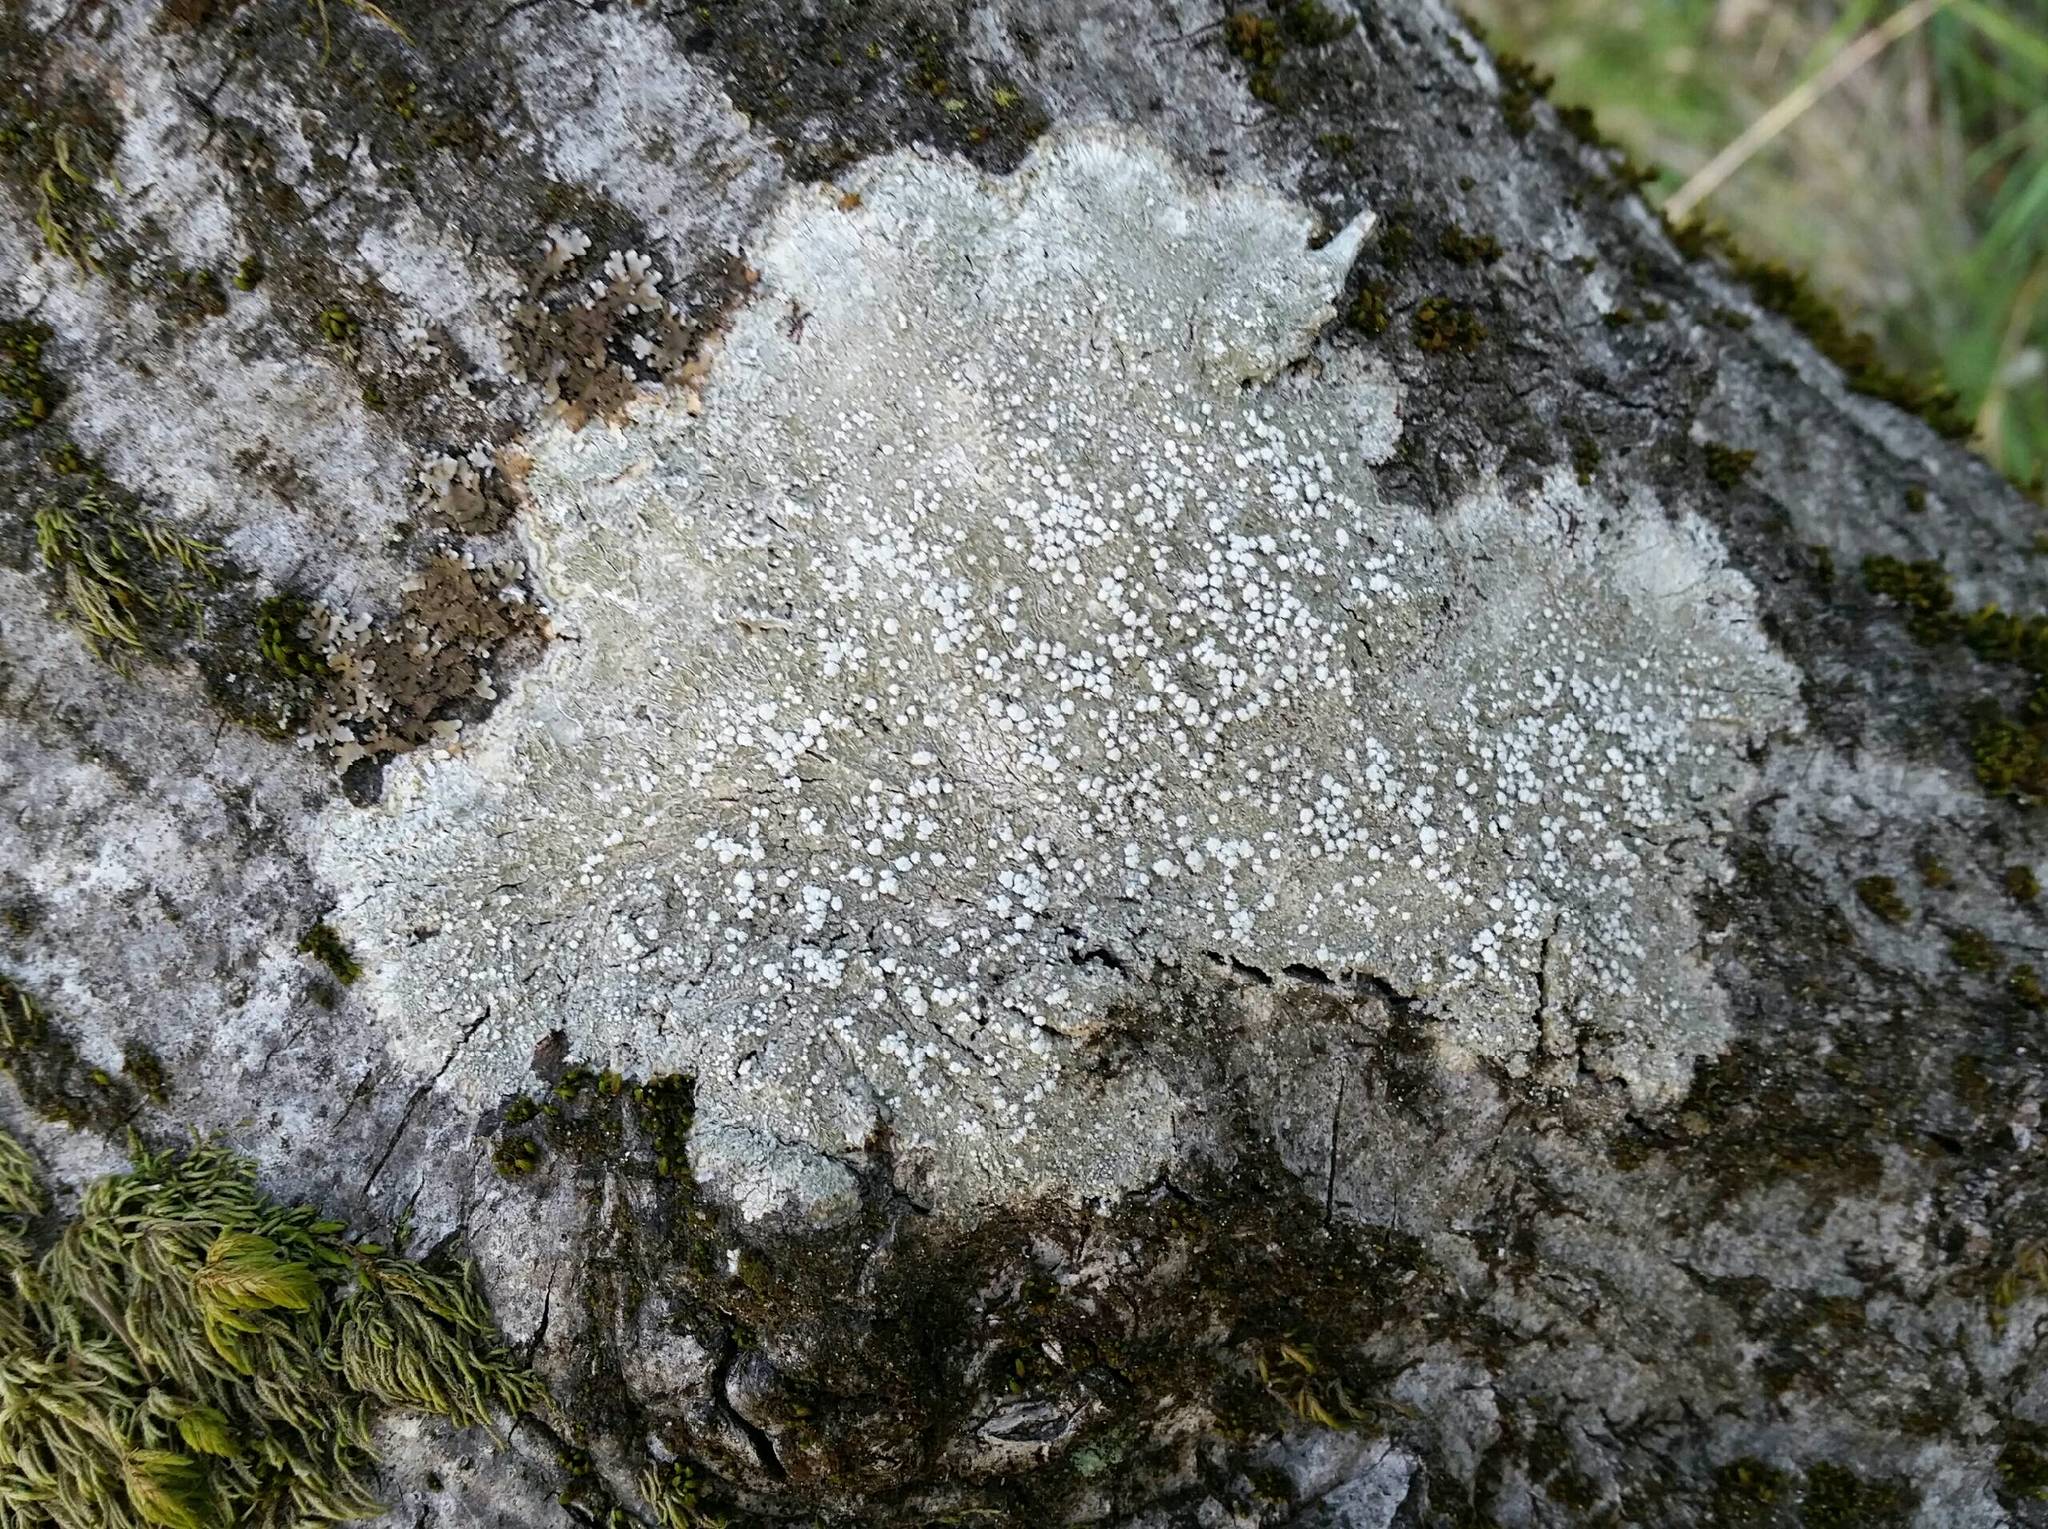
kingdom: Fungi
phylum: Ascomycota
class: Lecanoromycetes
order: Pertusariales
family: Pertusariaceae
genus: Lepra
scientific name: Lepra amara
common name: Bitter wart lichen
